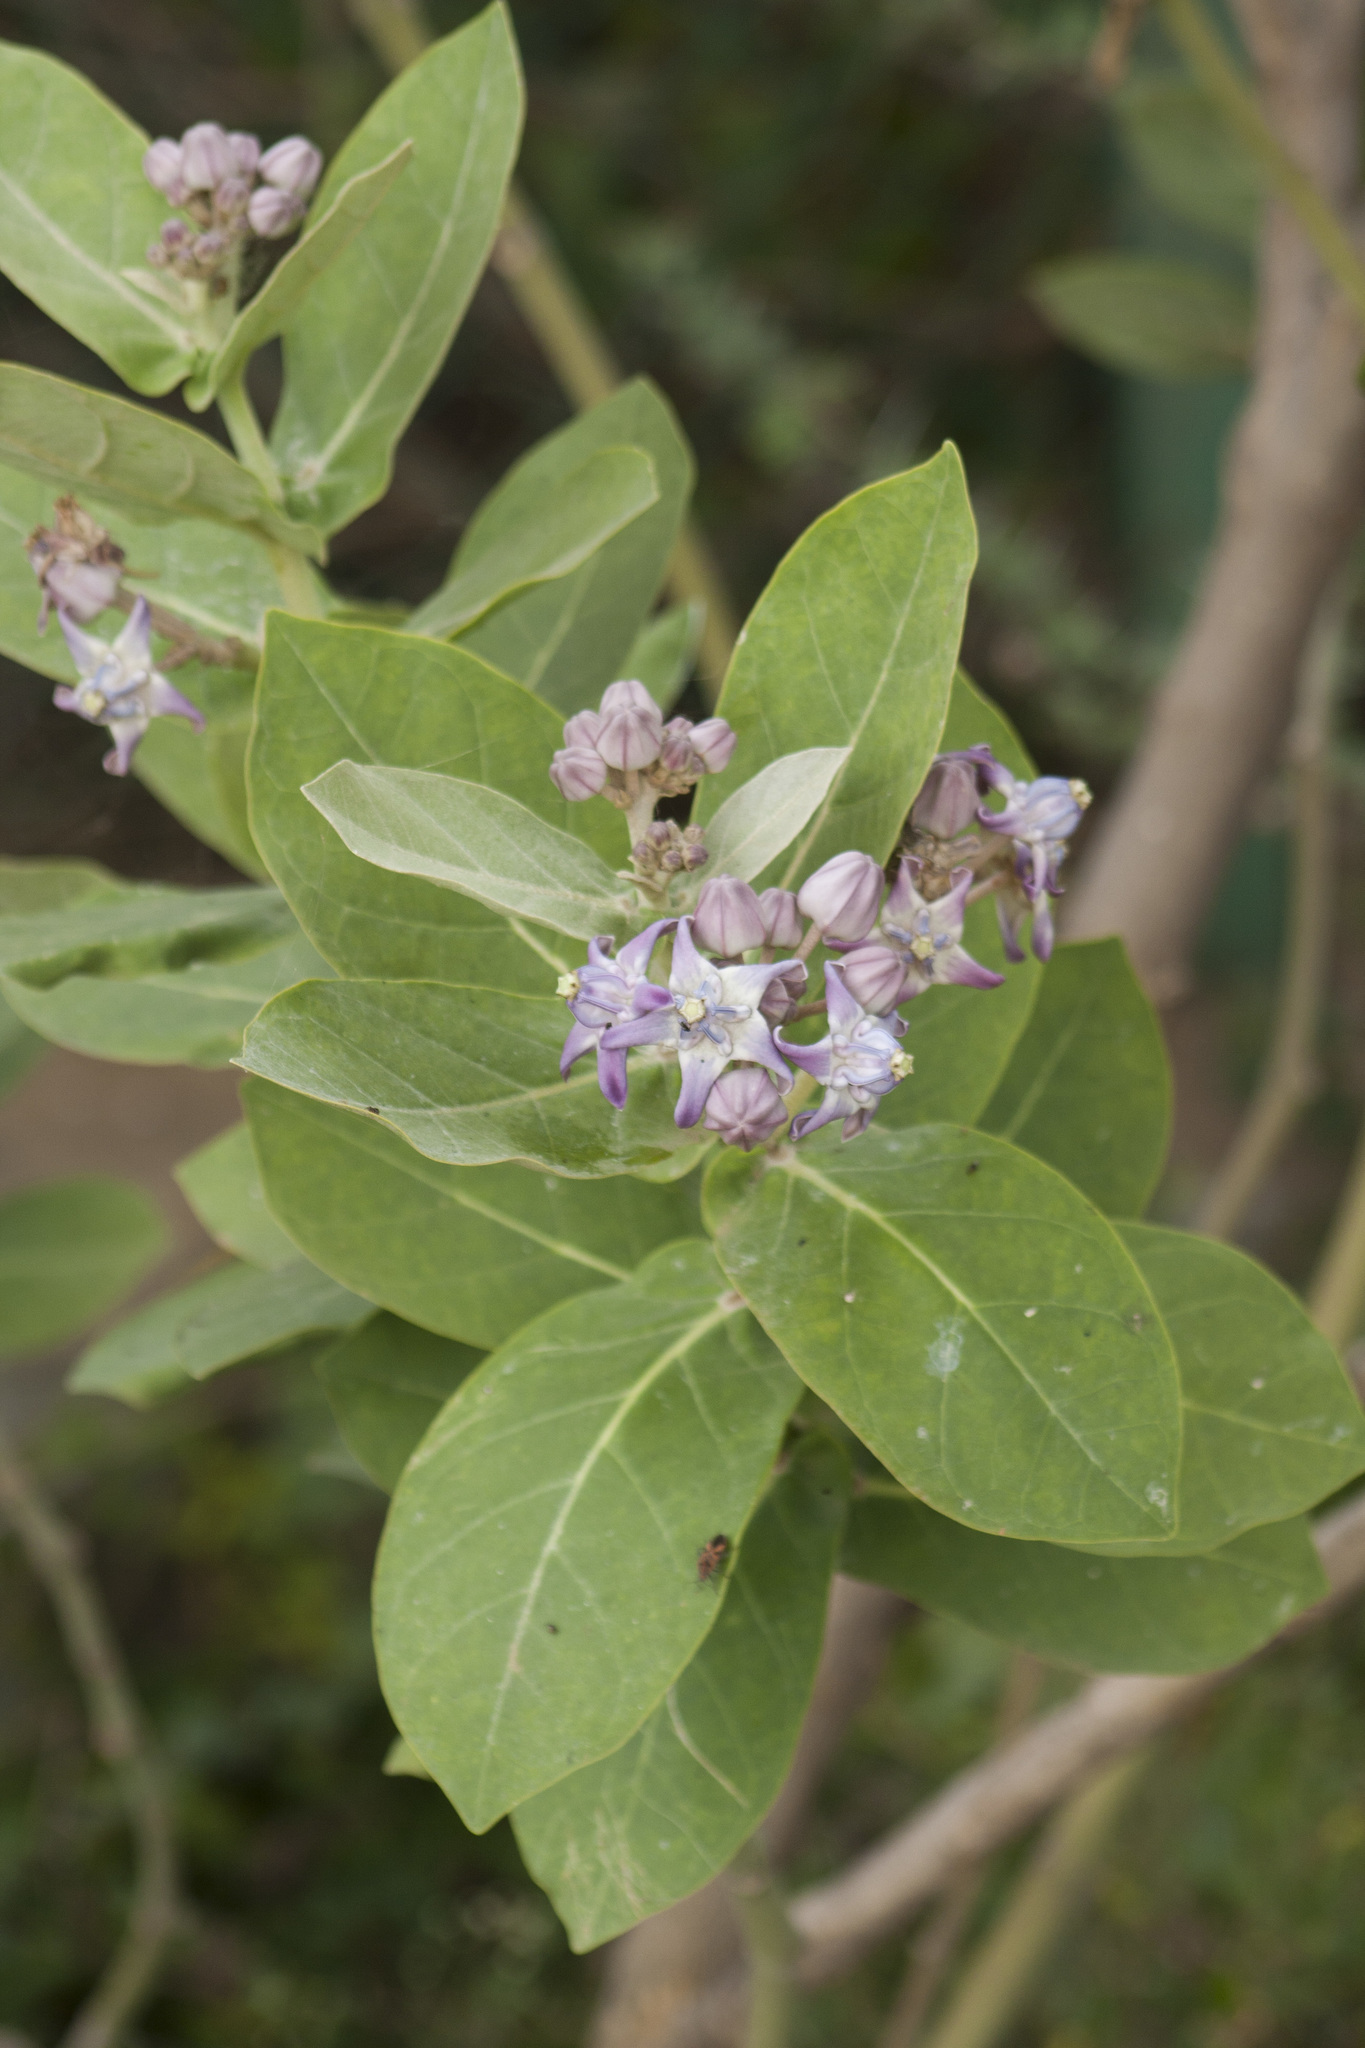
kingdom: Plantae
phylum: Tracheophyta
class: Magnoliopsida
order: Gentianales
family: Apocynaceae
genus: Calotropis
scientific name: Calotropis gigantea
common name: Crown flower
